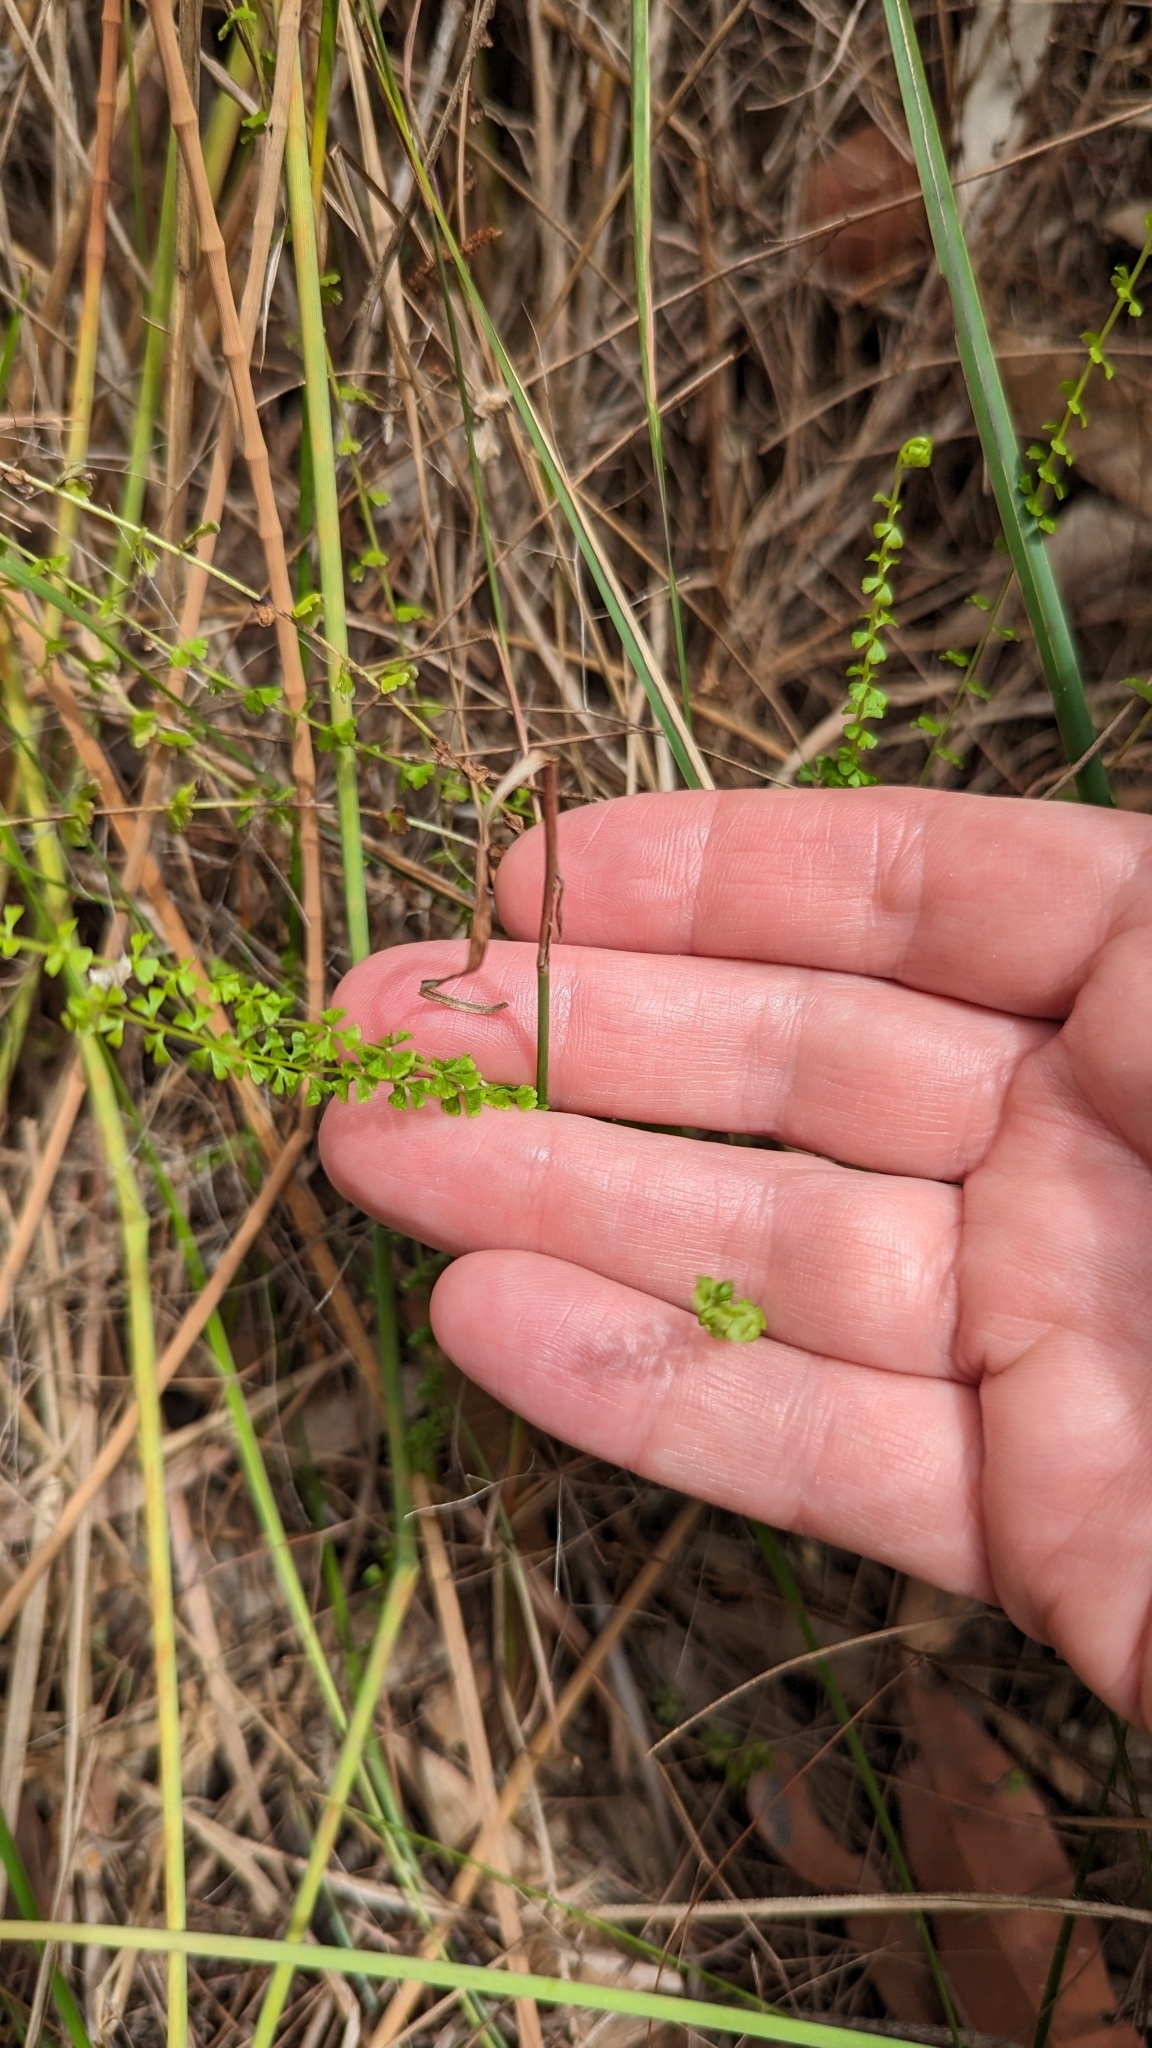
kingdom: Plantae
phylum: Tracheophyta
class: Polypodiopsida
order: Polypodiales
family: Lindsaeaceae
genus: Lindsaea
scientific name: Lindsaea incisa
